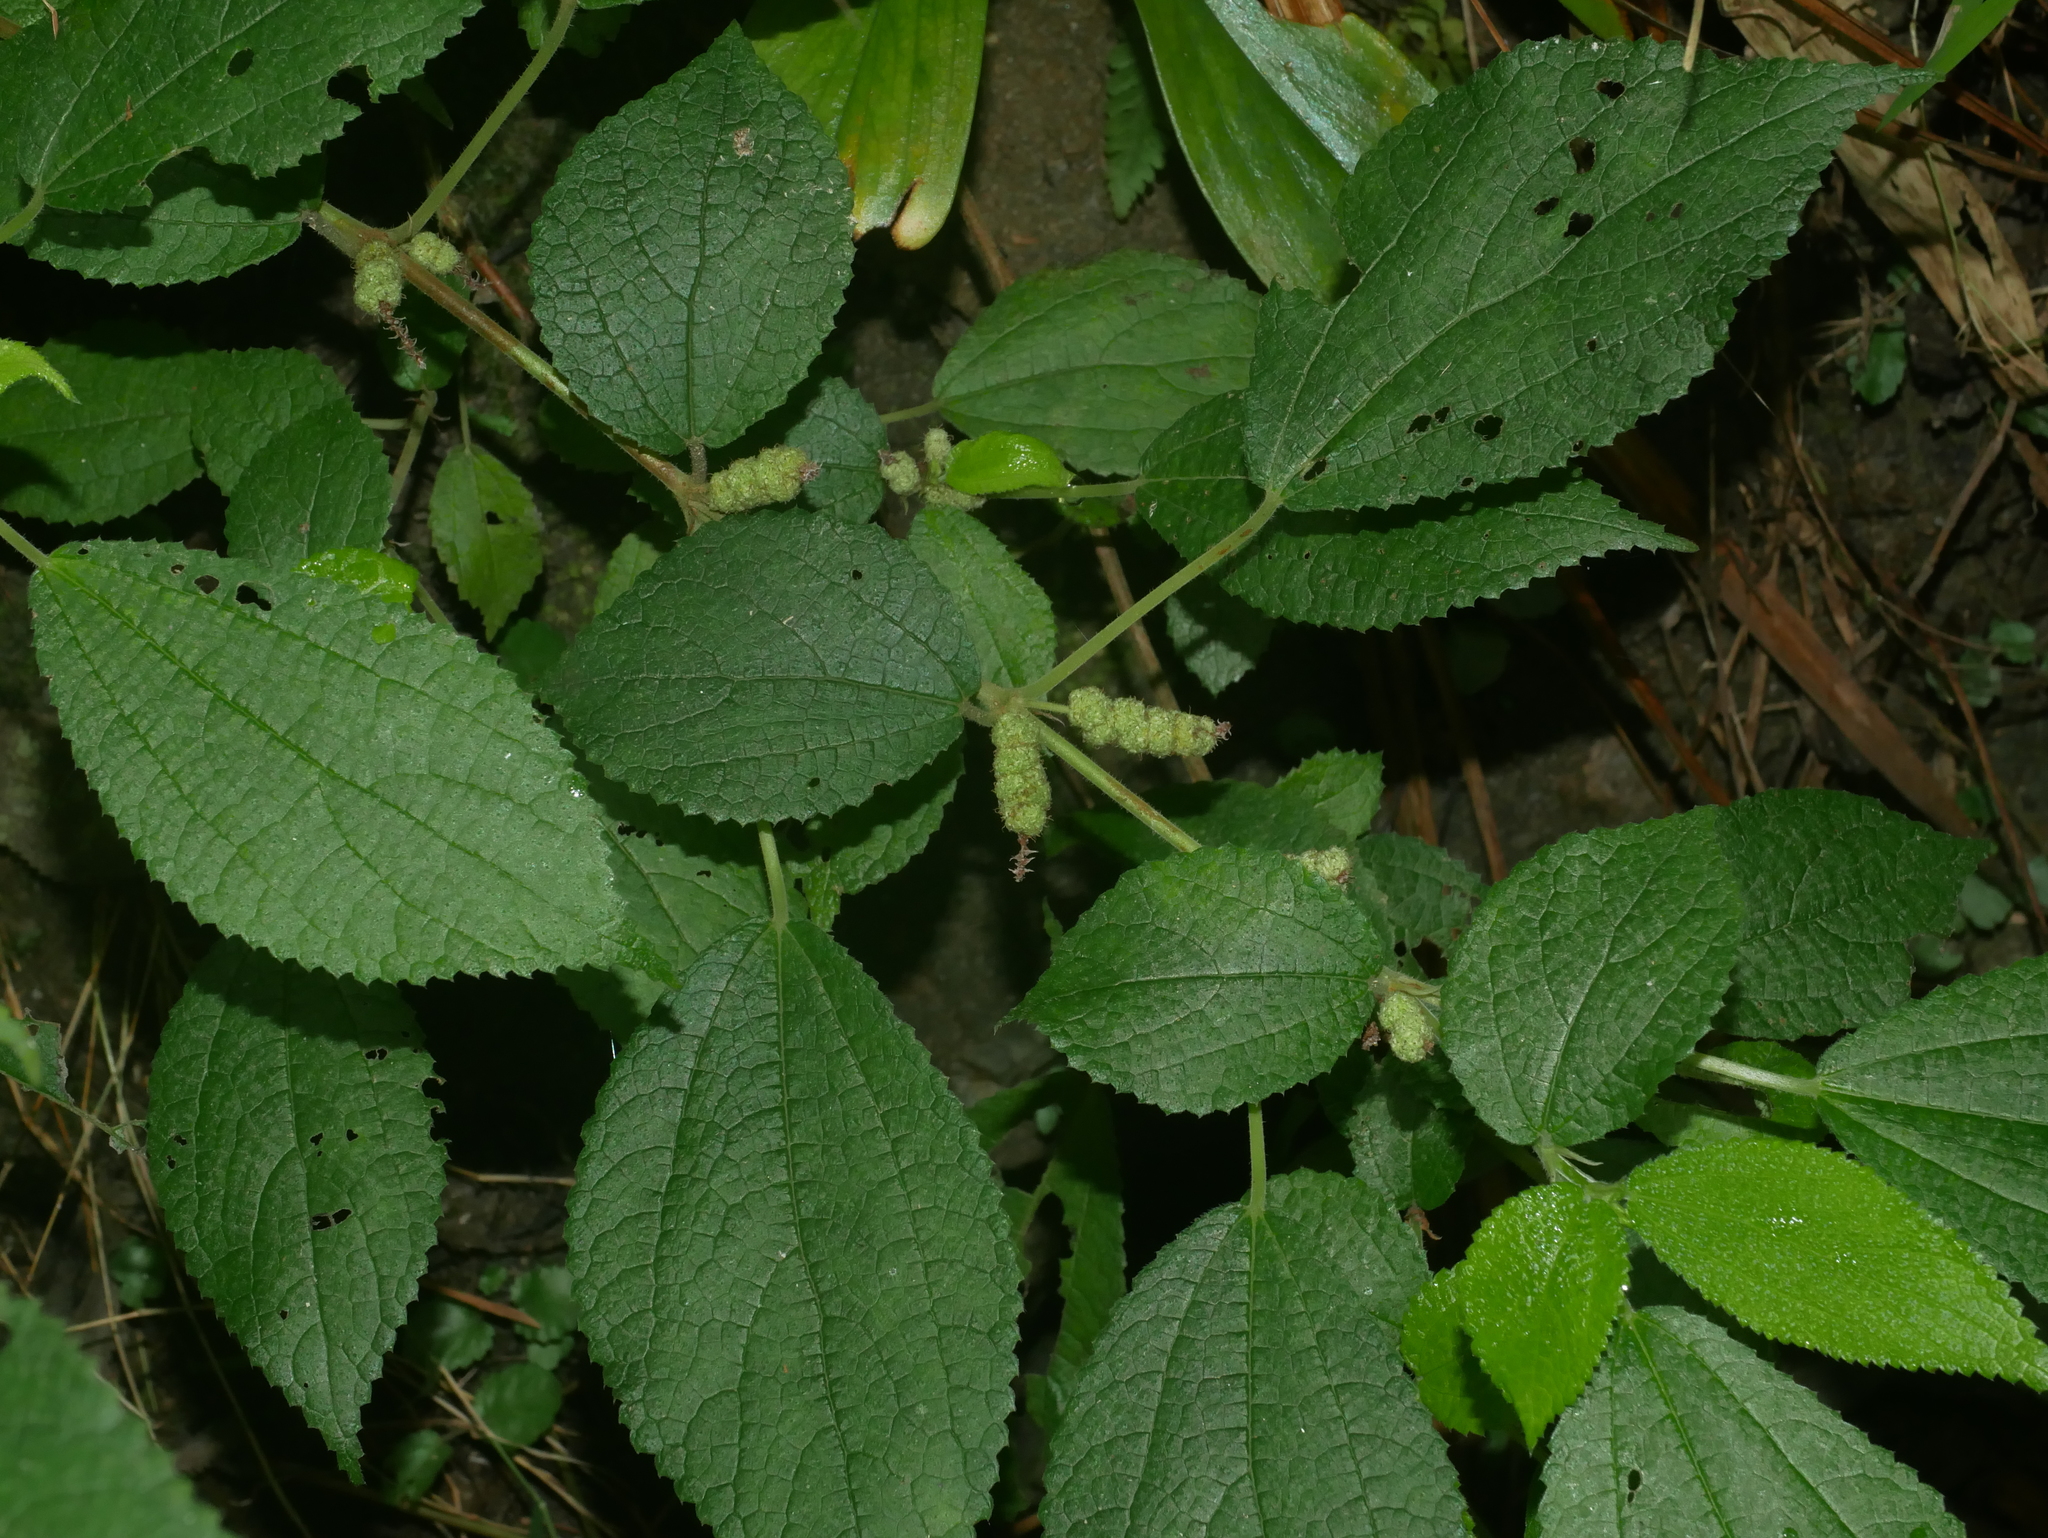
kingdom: Plantae
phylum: Tracheophyta
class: Magnoliopsida
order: Rosales
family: Urticaceae
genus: Boehmeria
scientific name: Boehmeria pilosiuscula
